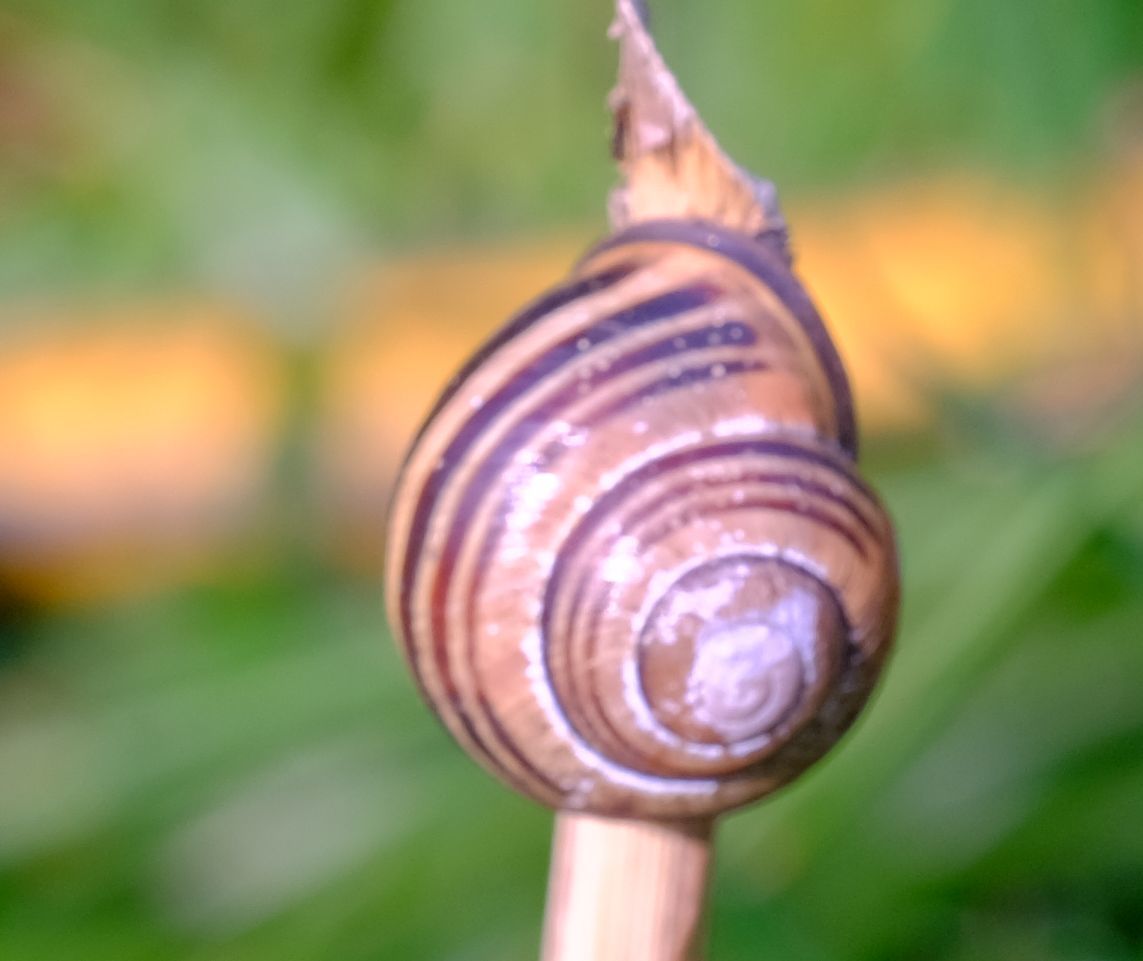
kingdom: Animalia
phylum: Mollusca
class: Gastropoda
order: Stylommatophora
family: Helicidae
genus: Cepaea
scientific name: Cepaea nemoralis
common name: Grovesnail
